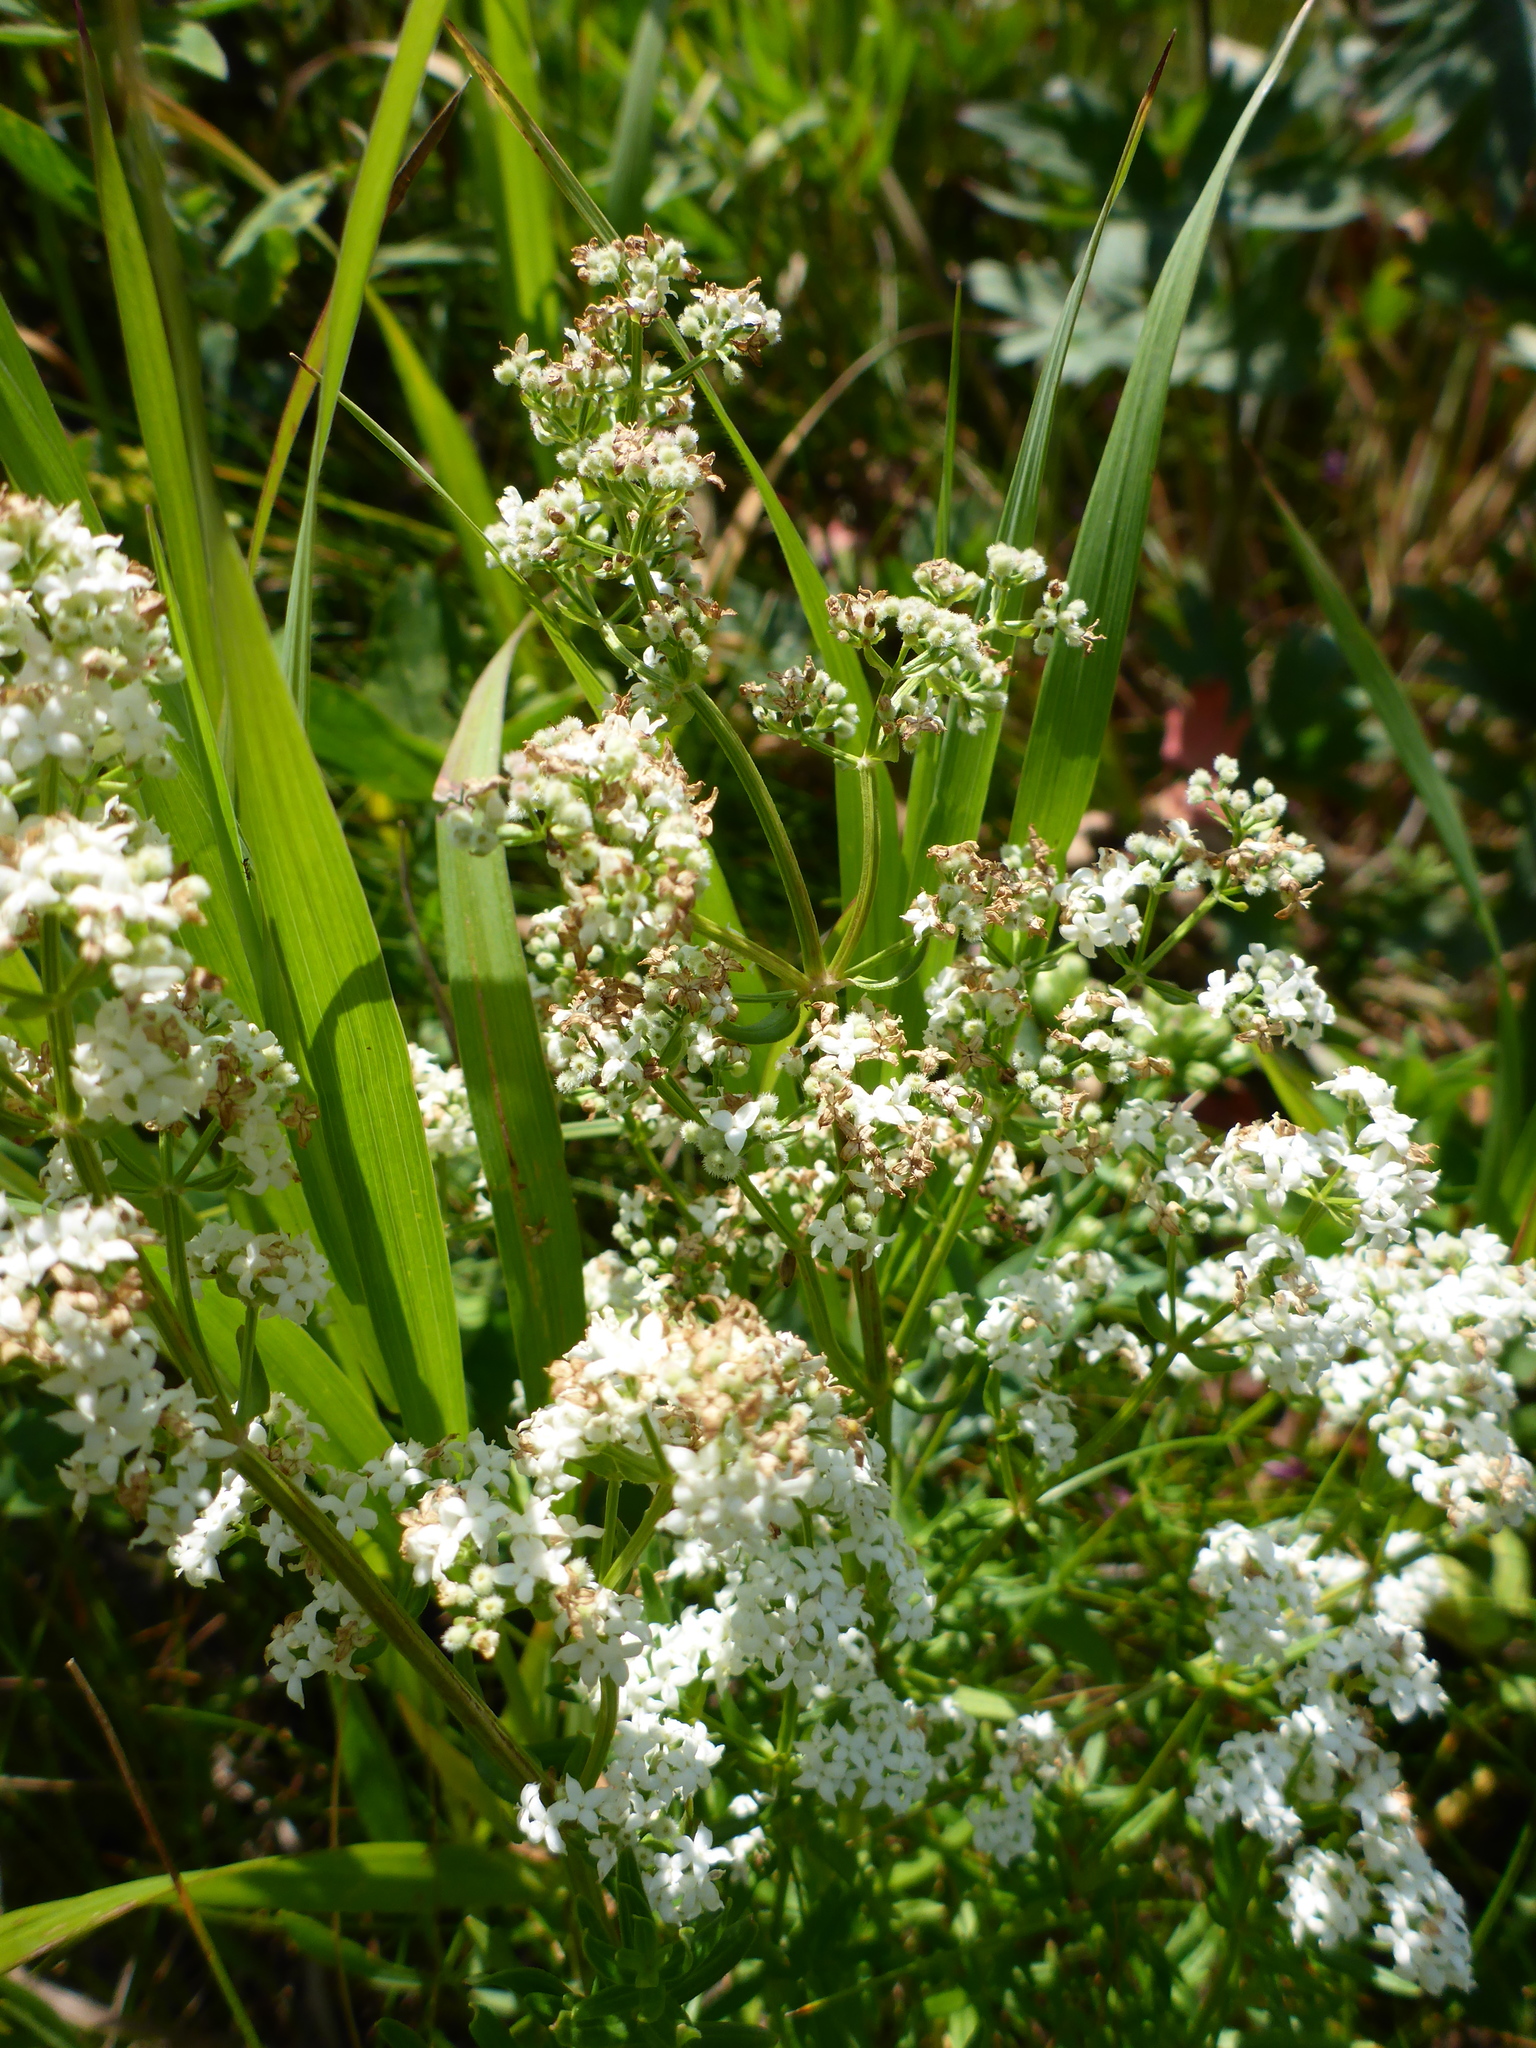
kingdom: Plantae
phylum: Tracheophyta
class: Magnoliopsida
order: Gentianales
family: Rubiaceae
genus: Galium
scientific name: Galium boreale
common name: Northern bedstraw
